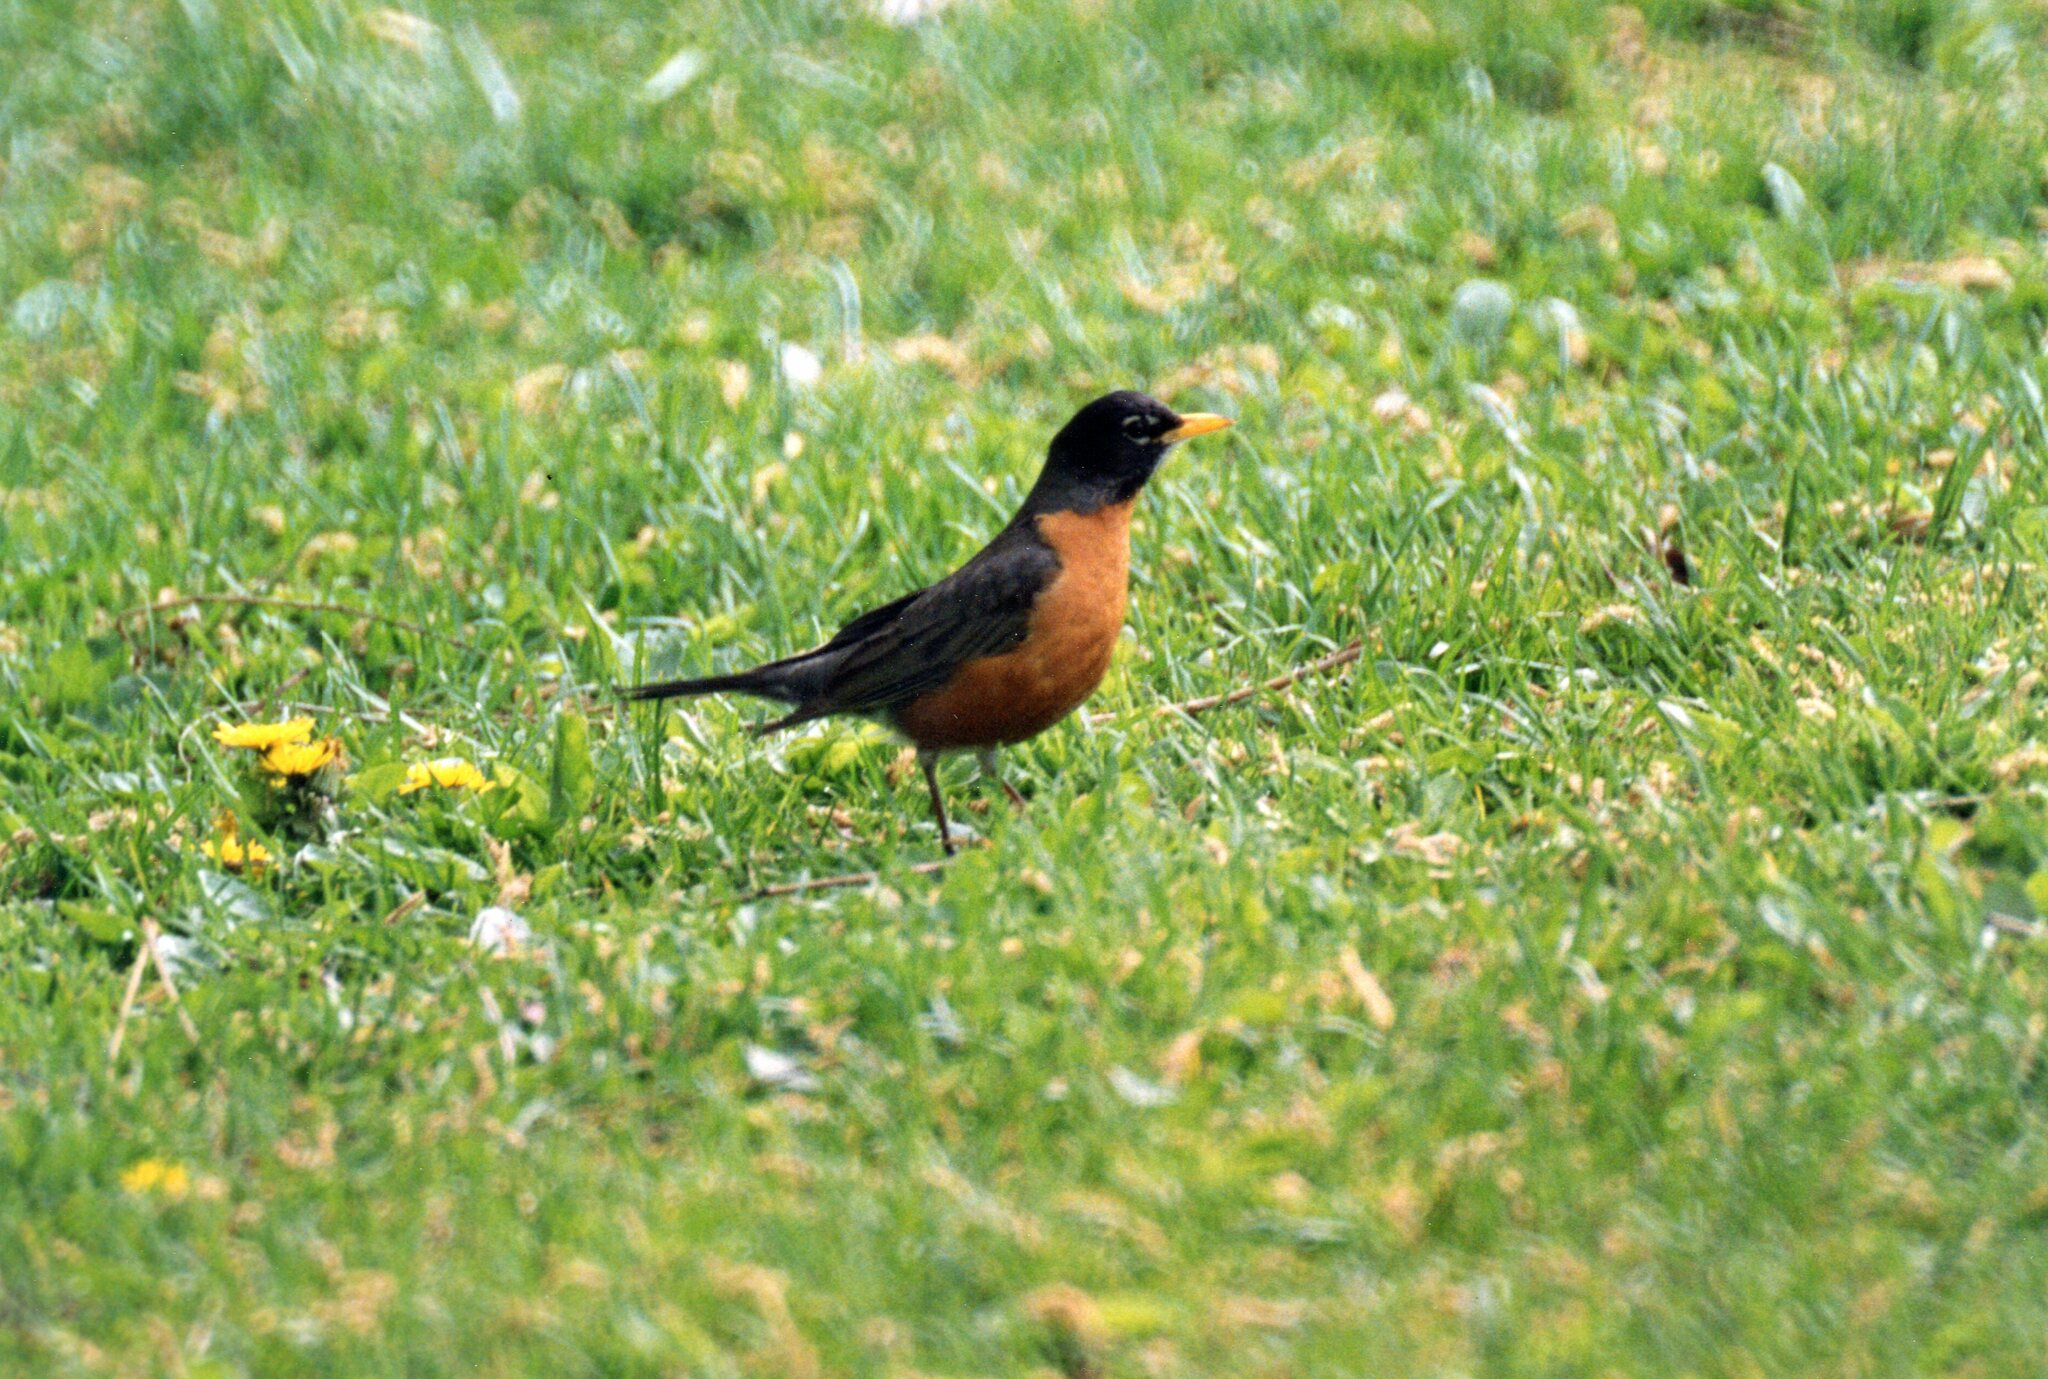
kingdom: Animalia
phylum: Chordata
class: Aves
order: Passeriformes
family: Turdidae
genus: Turdus
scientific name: Turdus migratorius
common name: American robin
